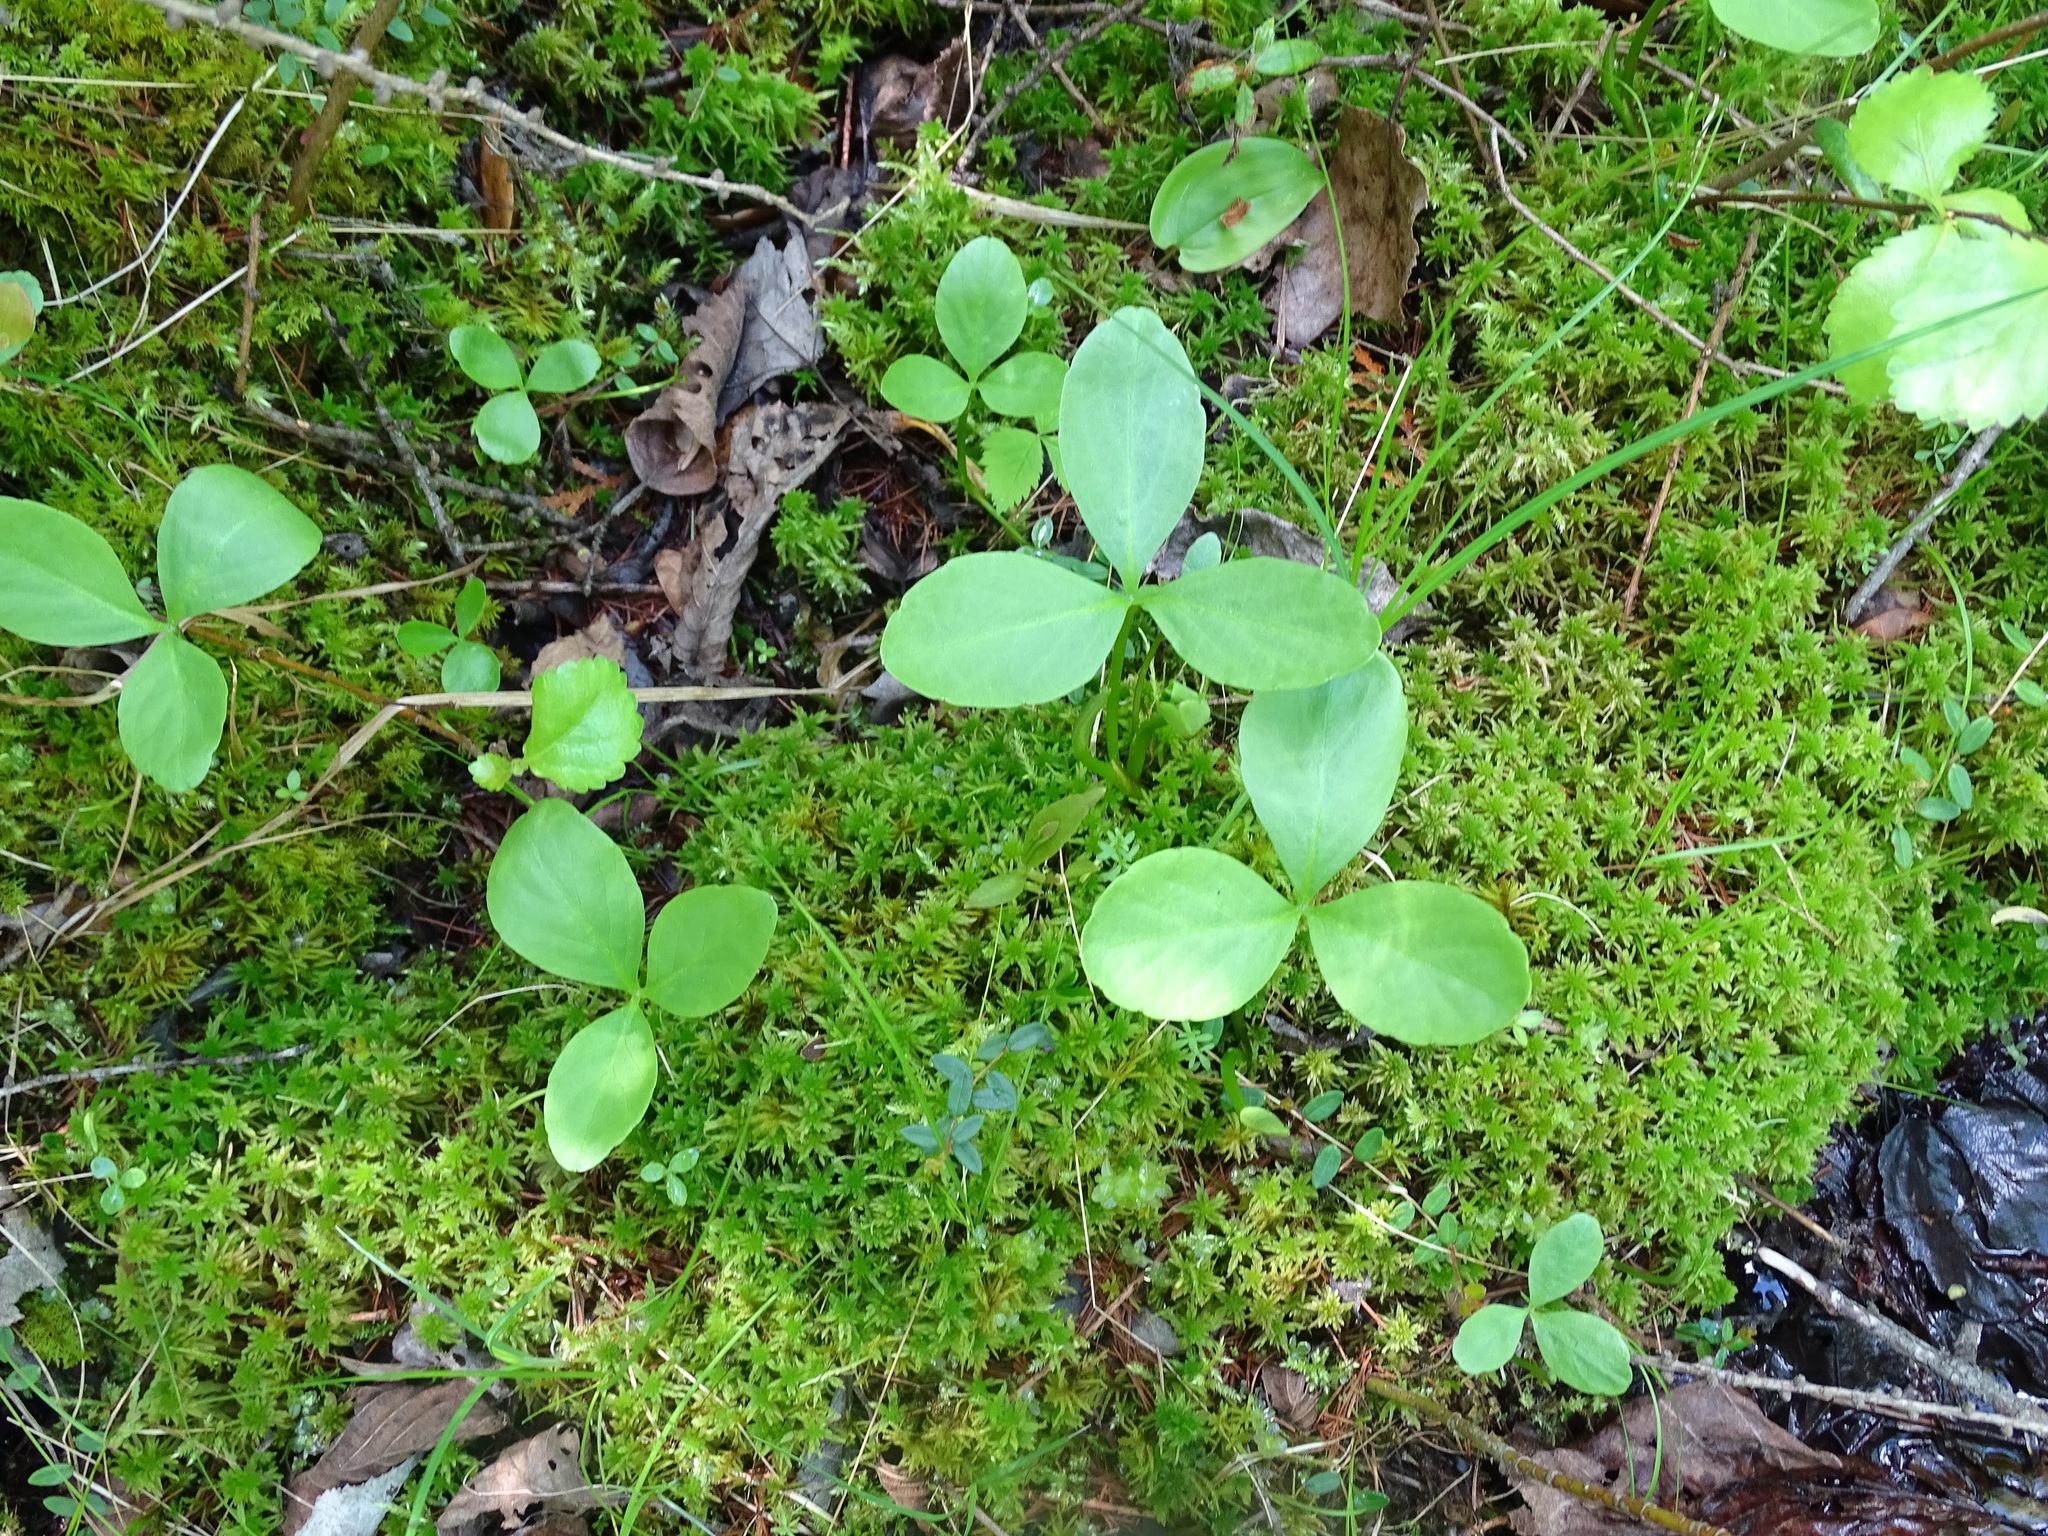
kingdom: Plantae
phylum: Tracheophyta
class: Magnoliopsida
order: Asterales
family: Menyanthaceae
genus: Menyanthes
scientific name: Menyanthes trifoliata
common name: Bogbean
